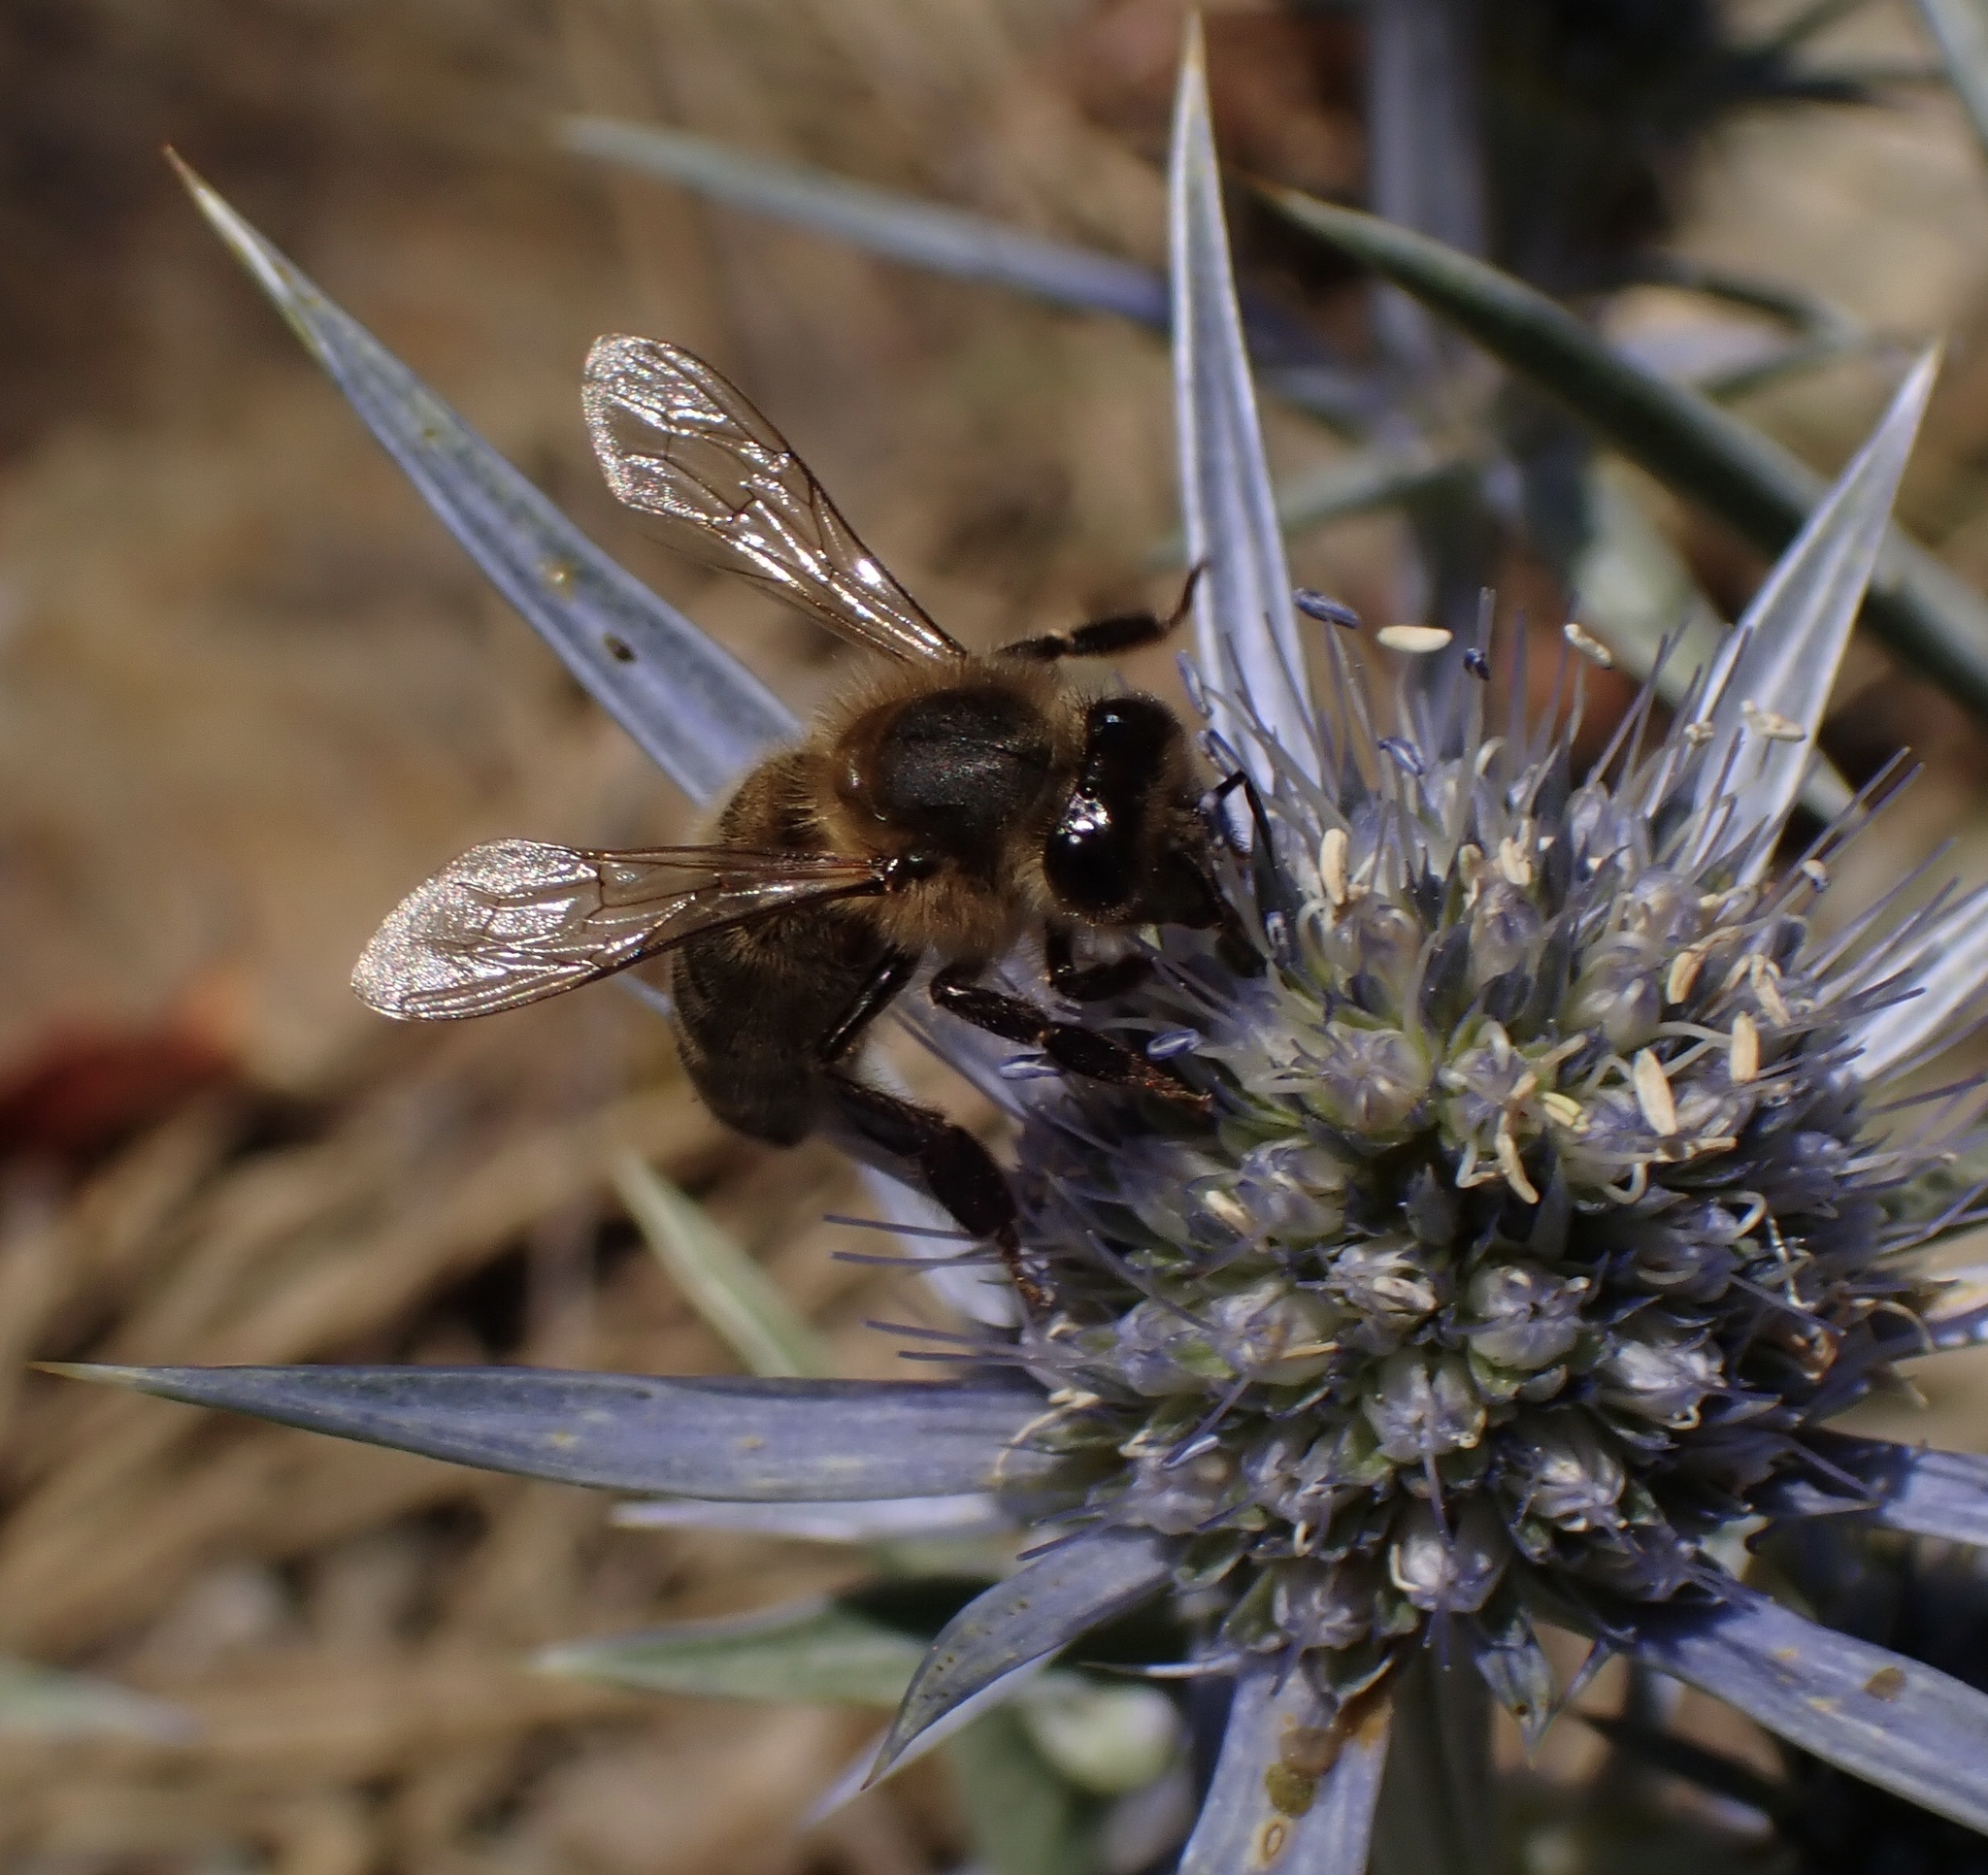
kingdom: Animalia
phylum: Arthropoda
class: Insecta
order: Hymenoptera
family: Apidae
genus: Apis
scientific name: Apis mellifera
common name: Honey bee
